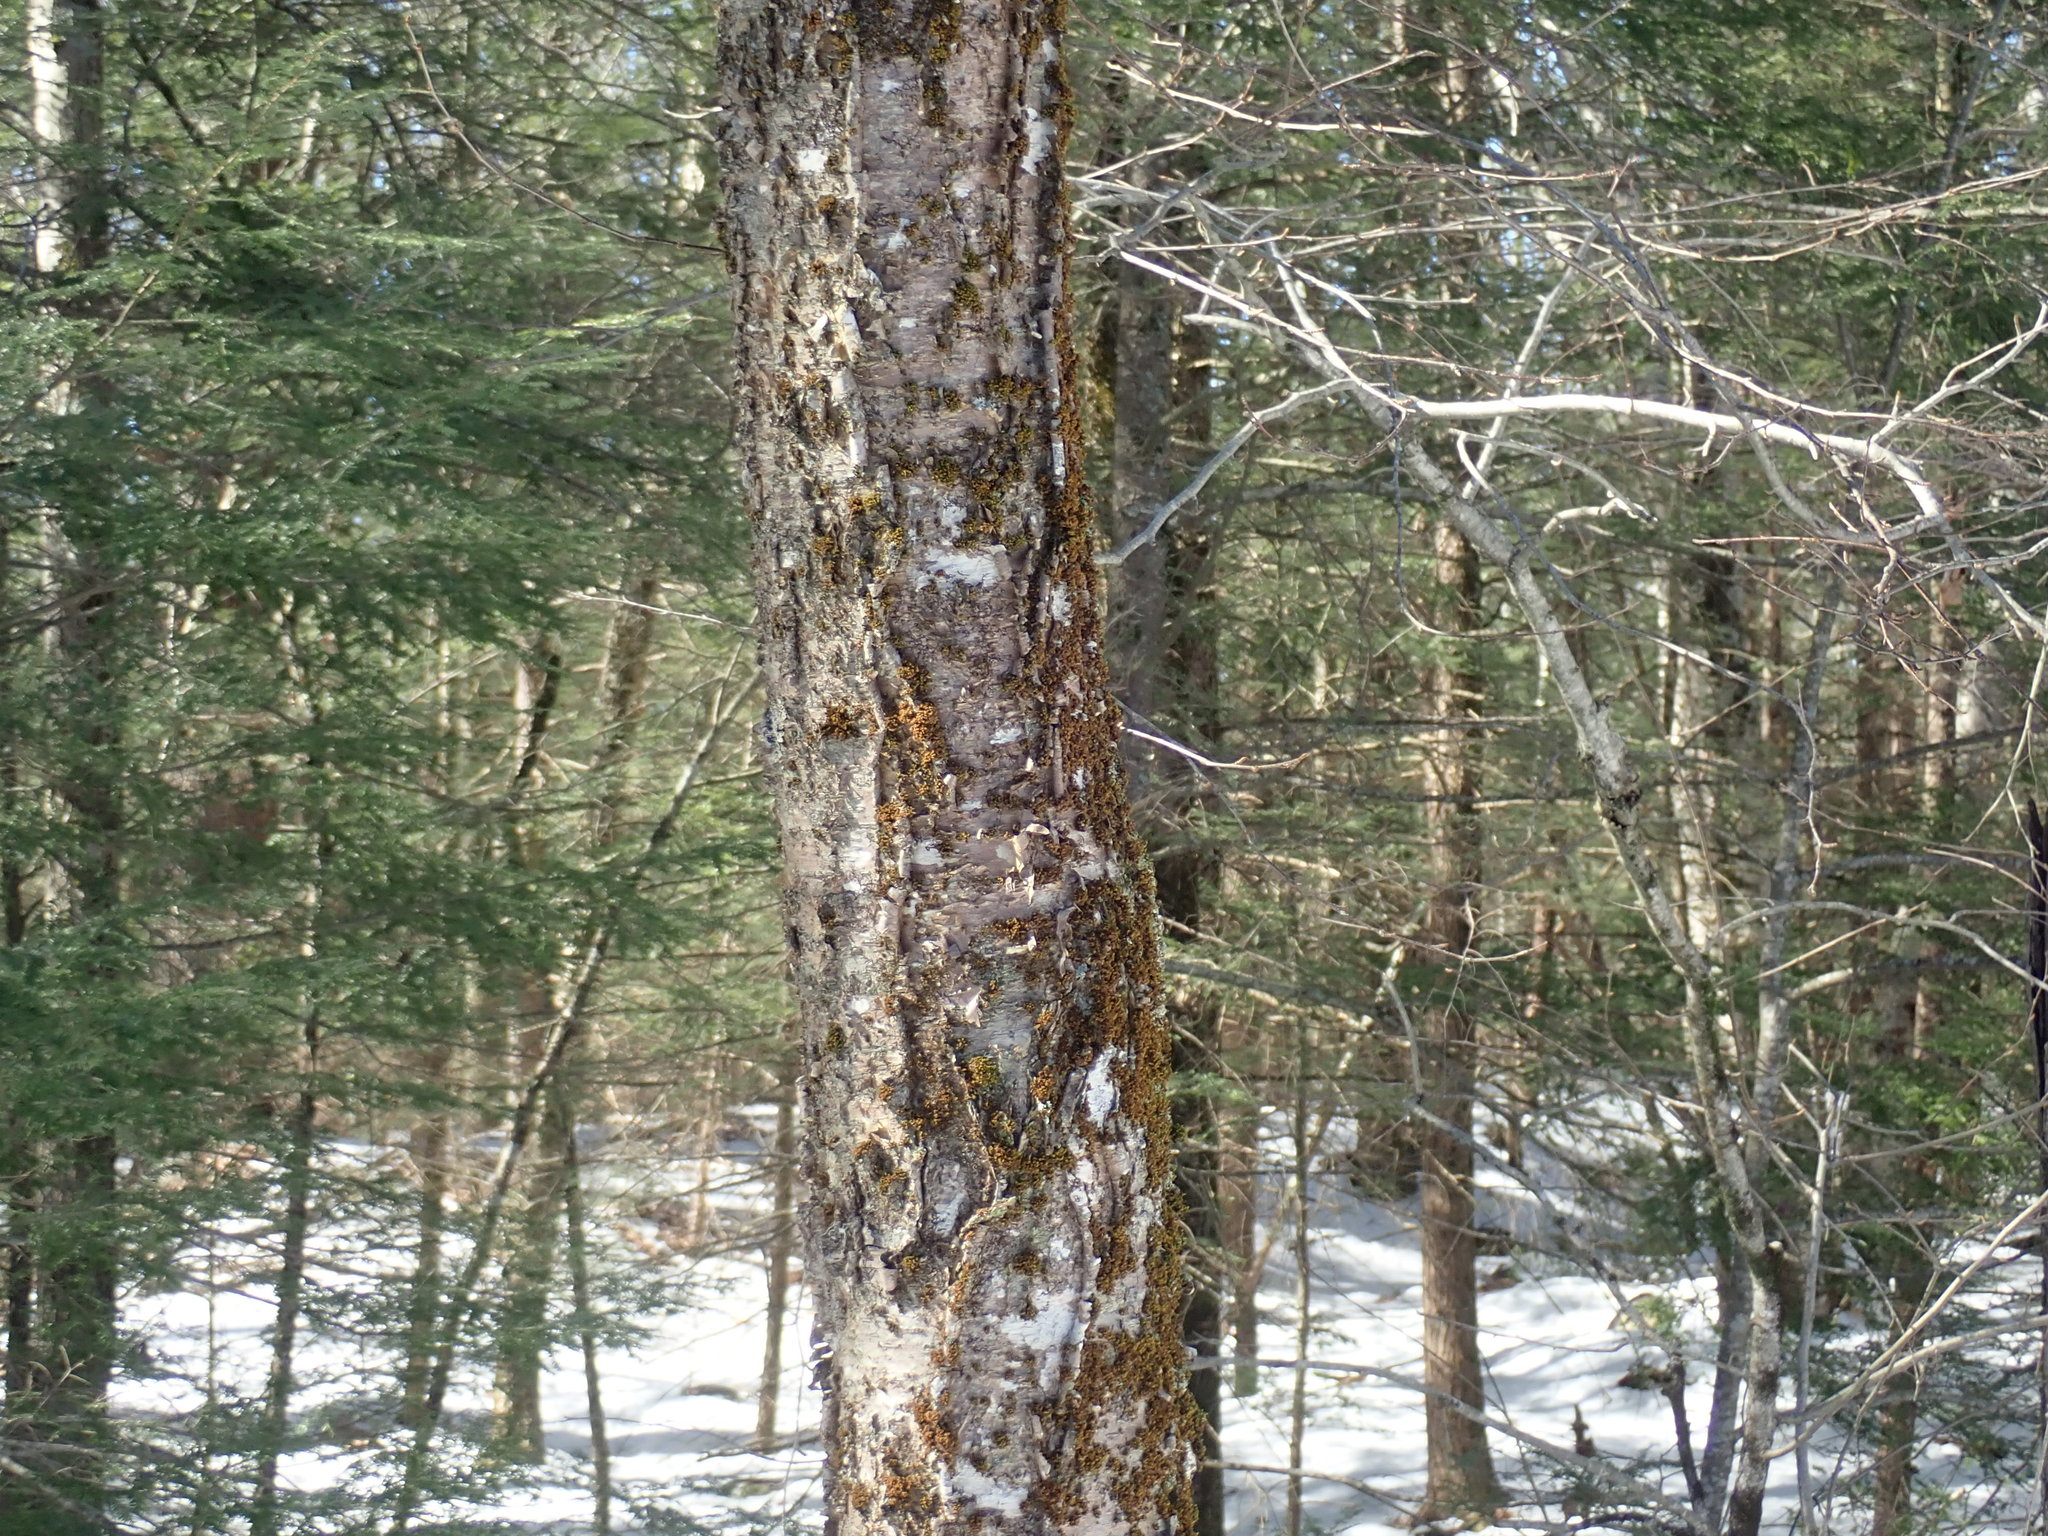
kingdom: Plantae
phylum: Tracheophyta
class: Magnoliopsida
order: Fagales
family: Betulaceae
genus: Betula
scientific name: Betula alleghaniensis
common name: Yellow birch
